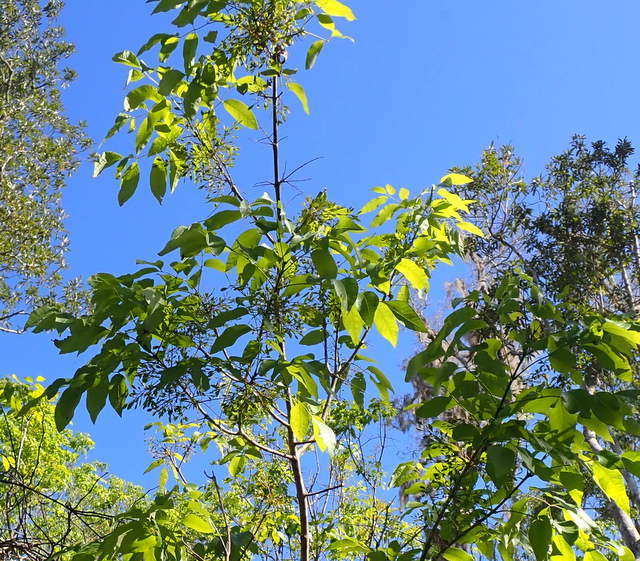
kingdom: Plantae
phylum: Tracheophyta
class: Magnoliopsida
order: Lamiales
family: Oleaceae
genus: Fraxinus
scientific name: Fraxinus caroliniana
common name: Carolina ash
